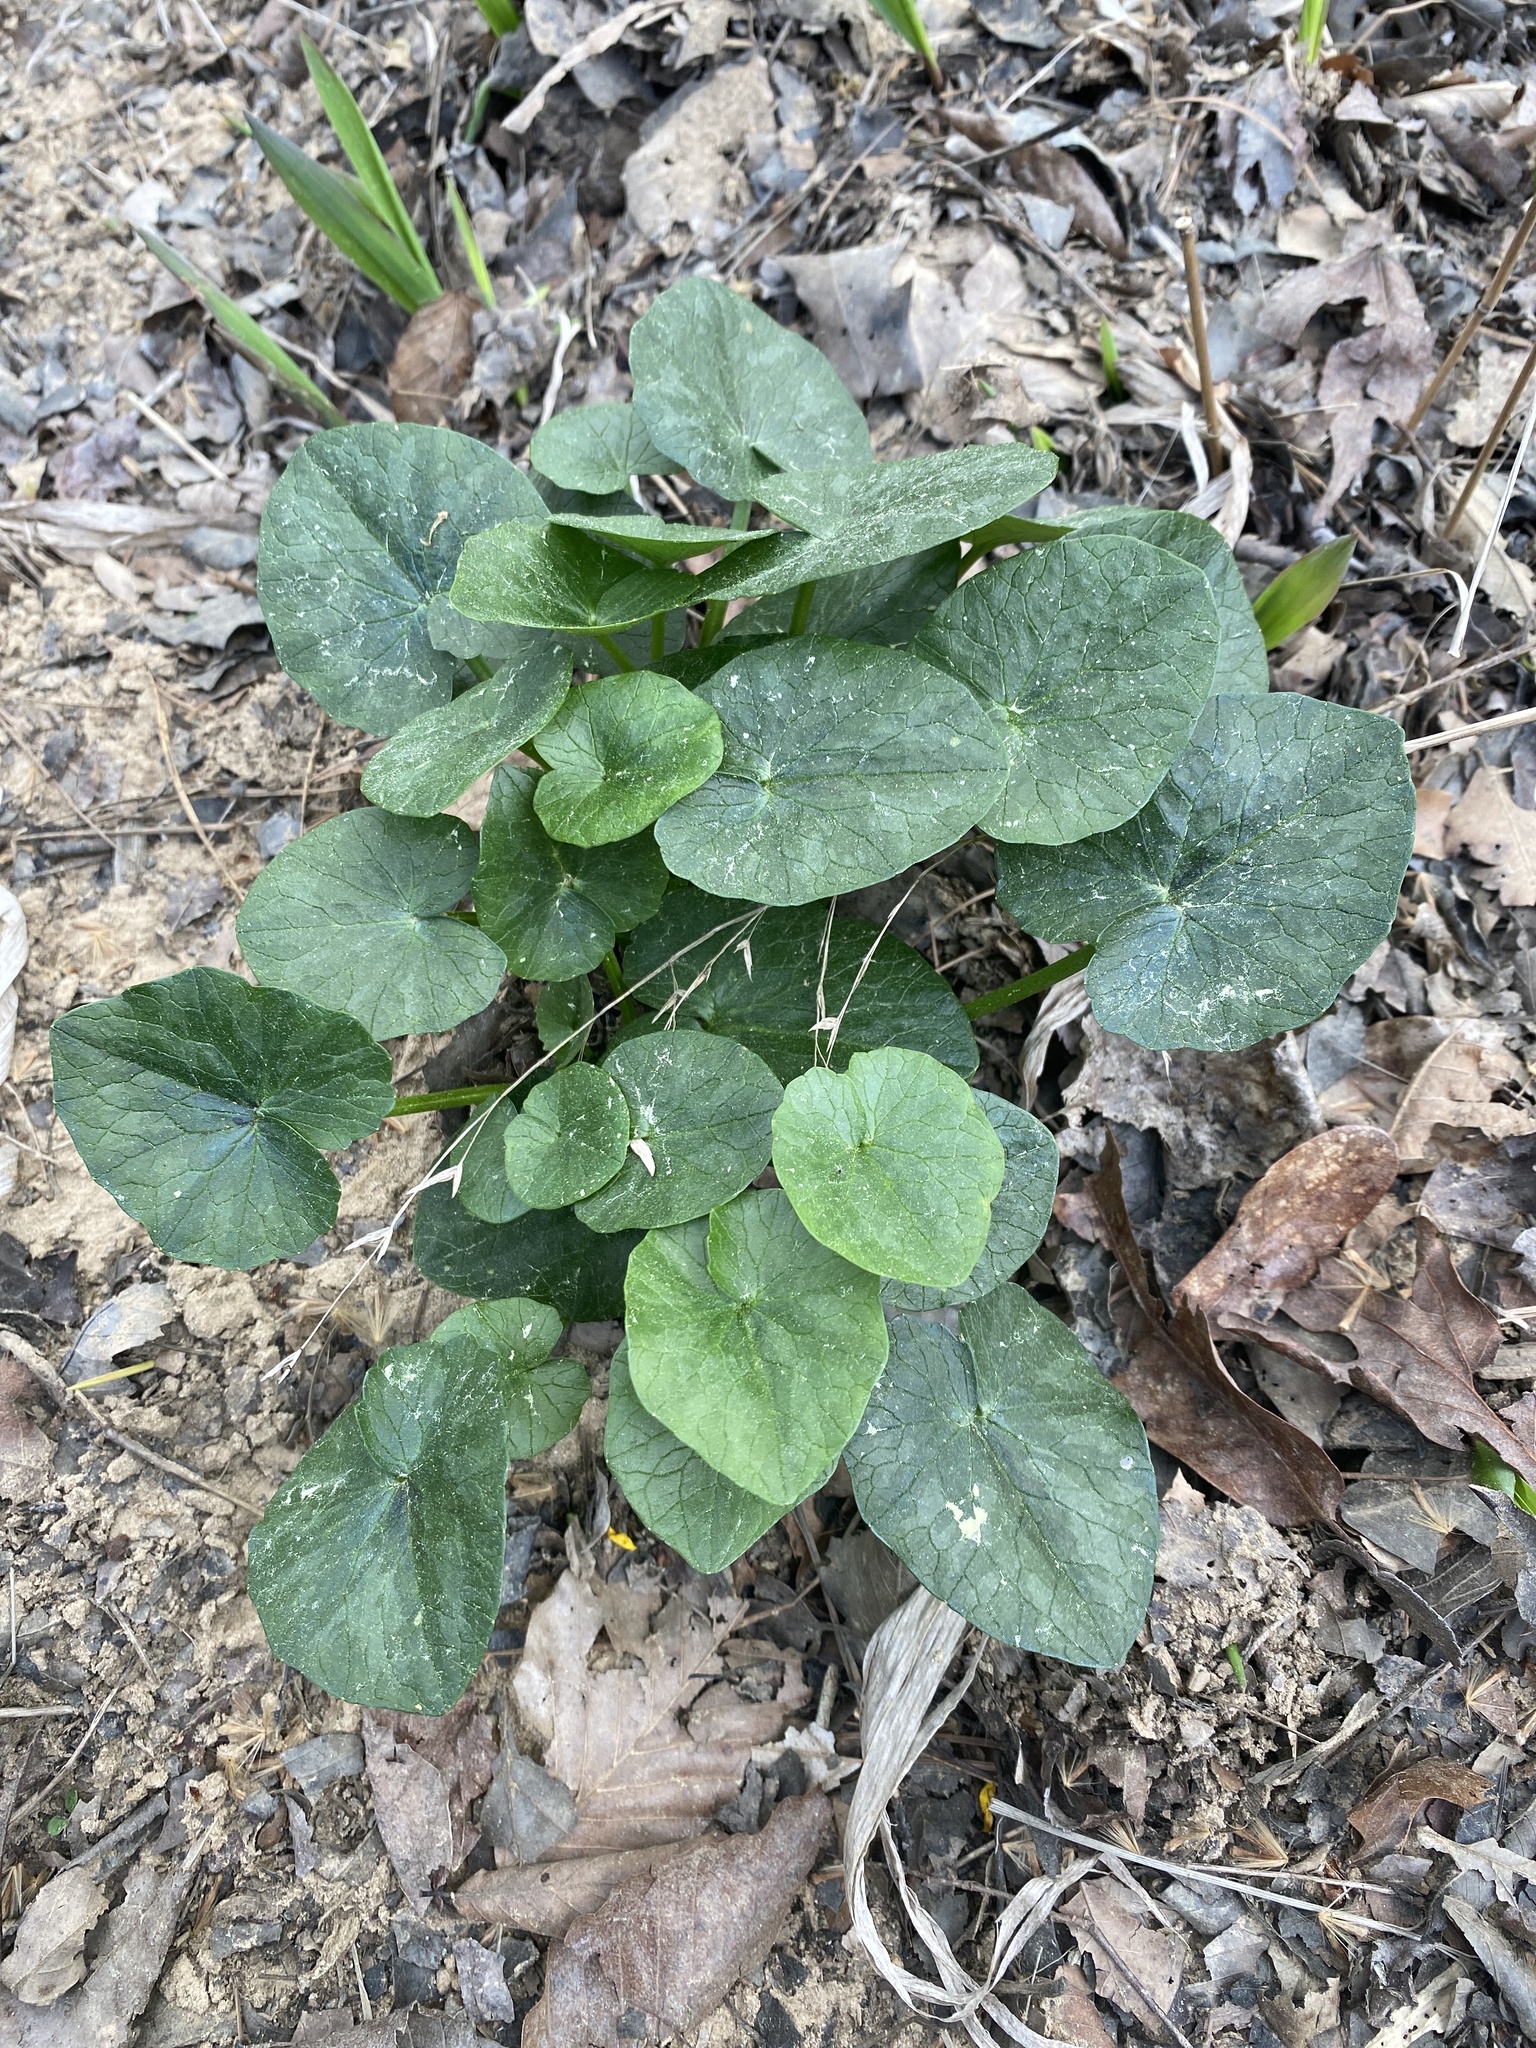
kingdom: Plantae
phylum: Tracheophyta
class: Magnoliopsida
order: Ranunculales
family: Ranunculaceae
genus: Ficaria
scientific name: Ficaria verna
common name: Lesser celandine
